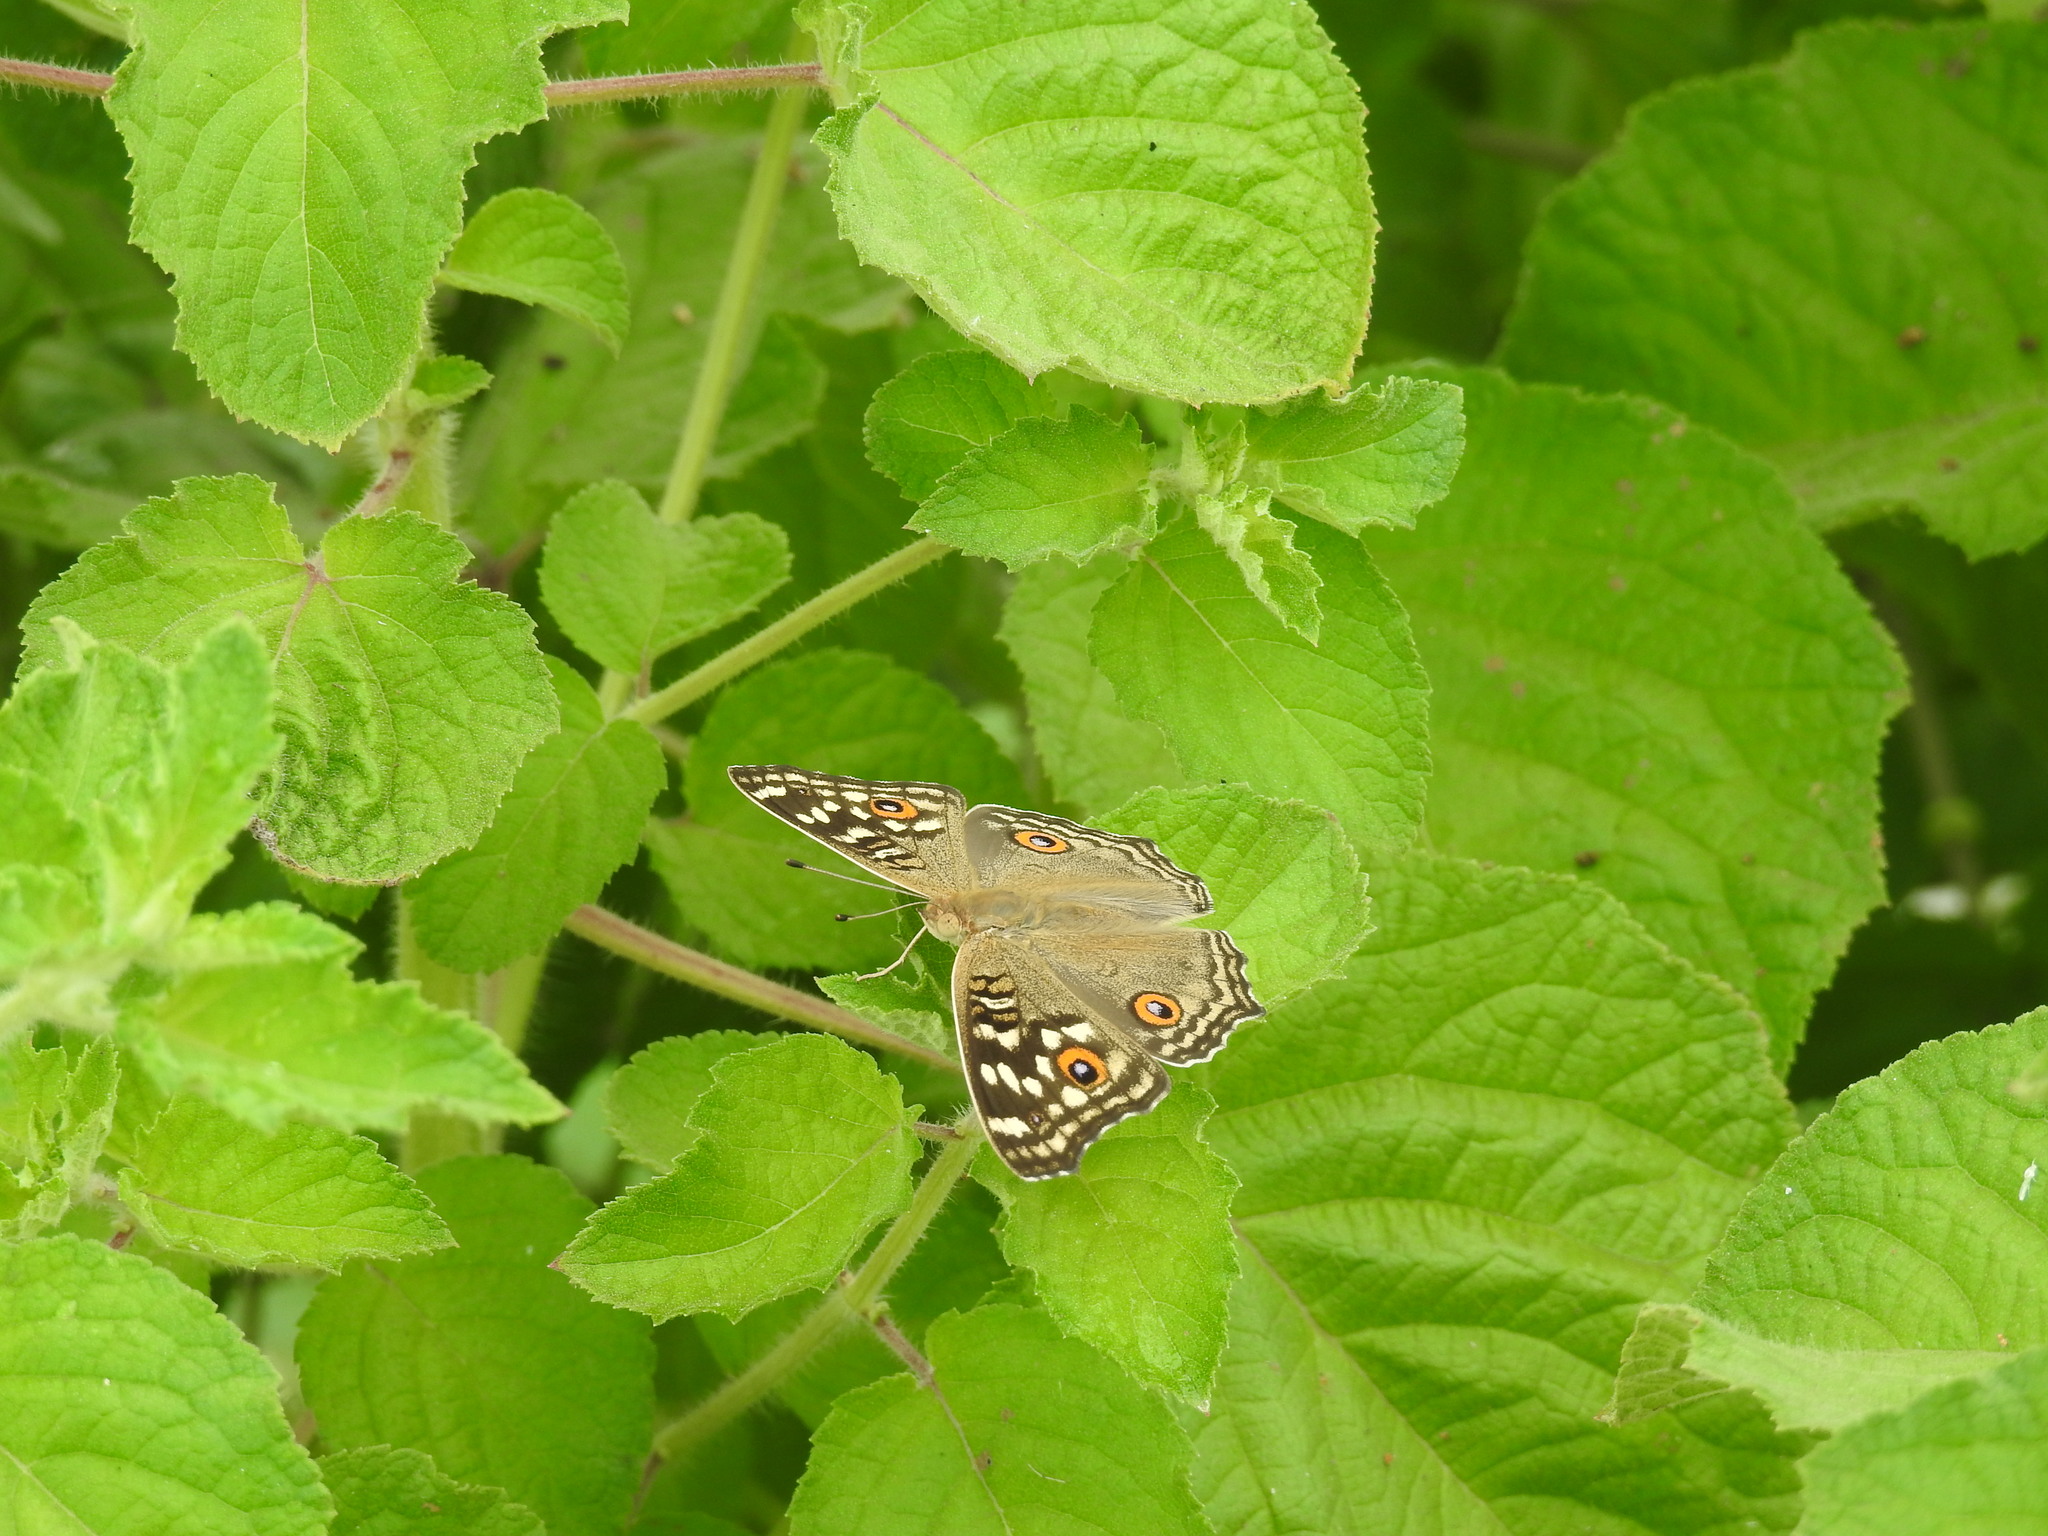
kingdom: Animalia
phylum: Arthropoda
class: Insecta
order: Lepidoptera
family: Nymphalidae
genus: Junonia
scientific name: Junonia lemonias
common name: Lemon pansy
